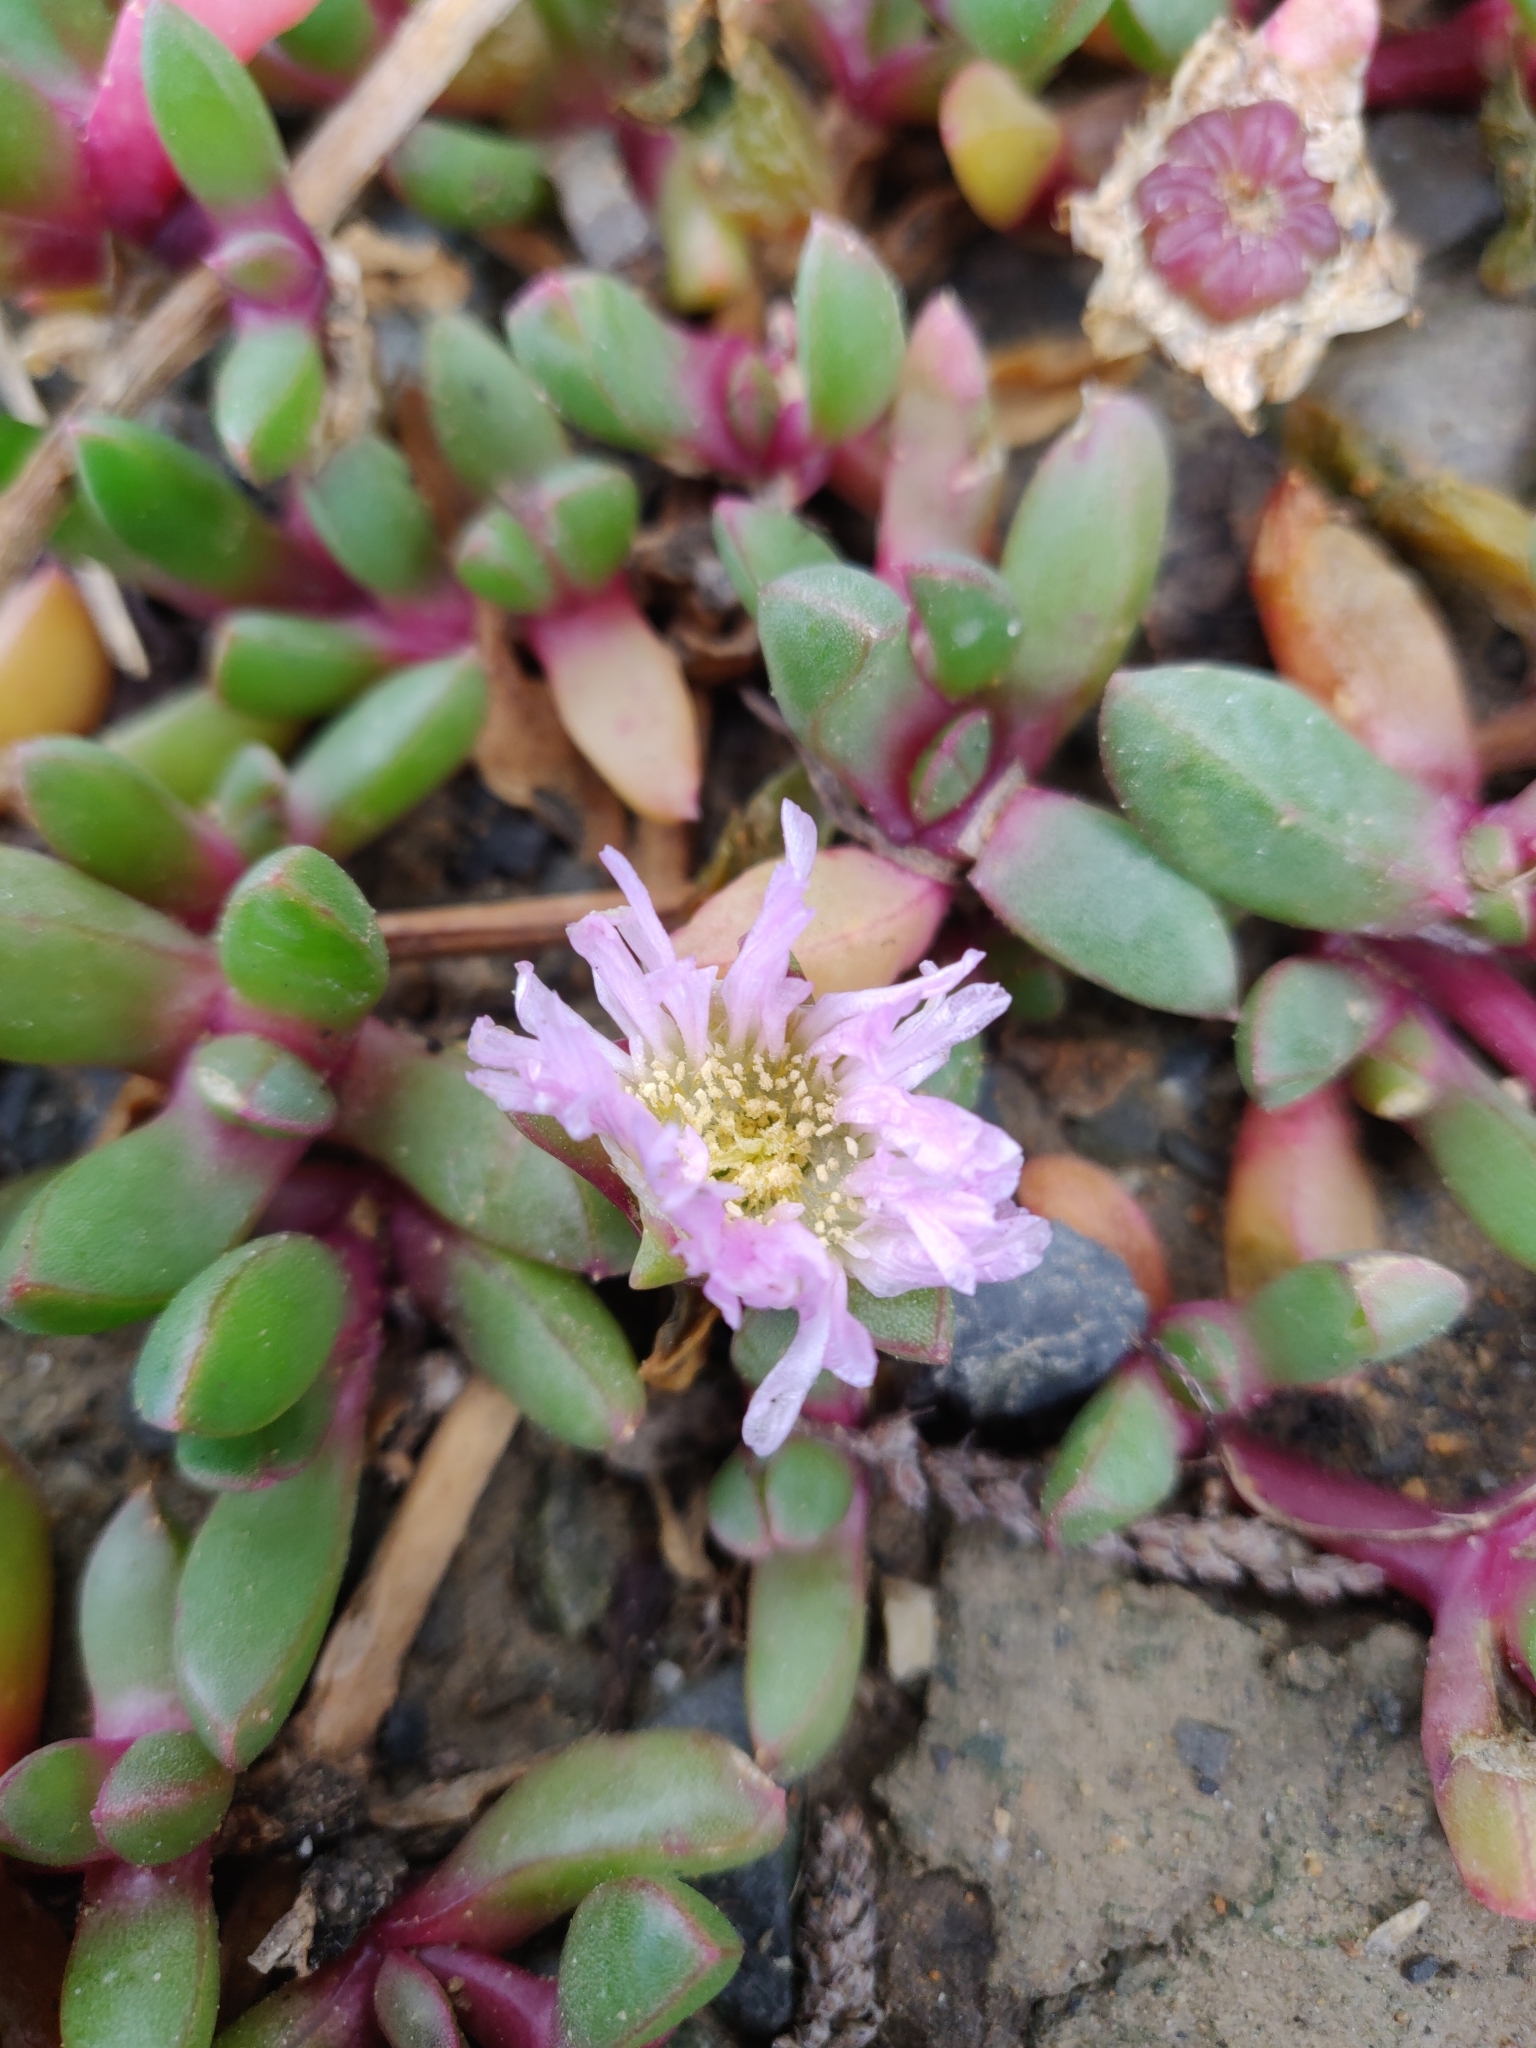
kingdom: Plantae
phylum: Tracheophyta
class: Magnoliopsida
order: Caryophyllales
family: Aizoaceae
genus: Disphyma
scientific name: Disphyma australe
